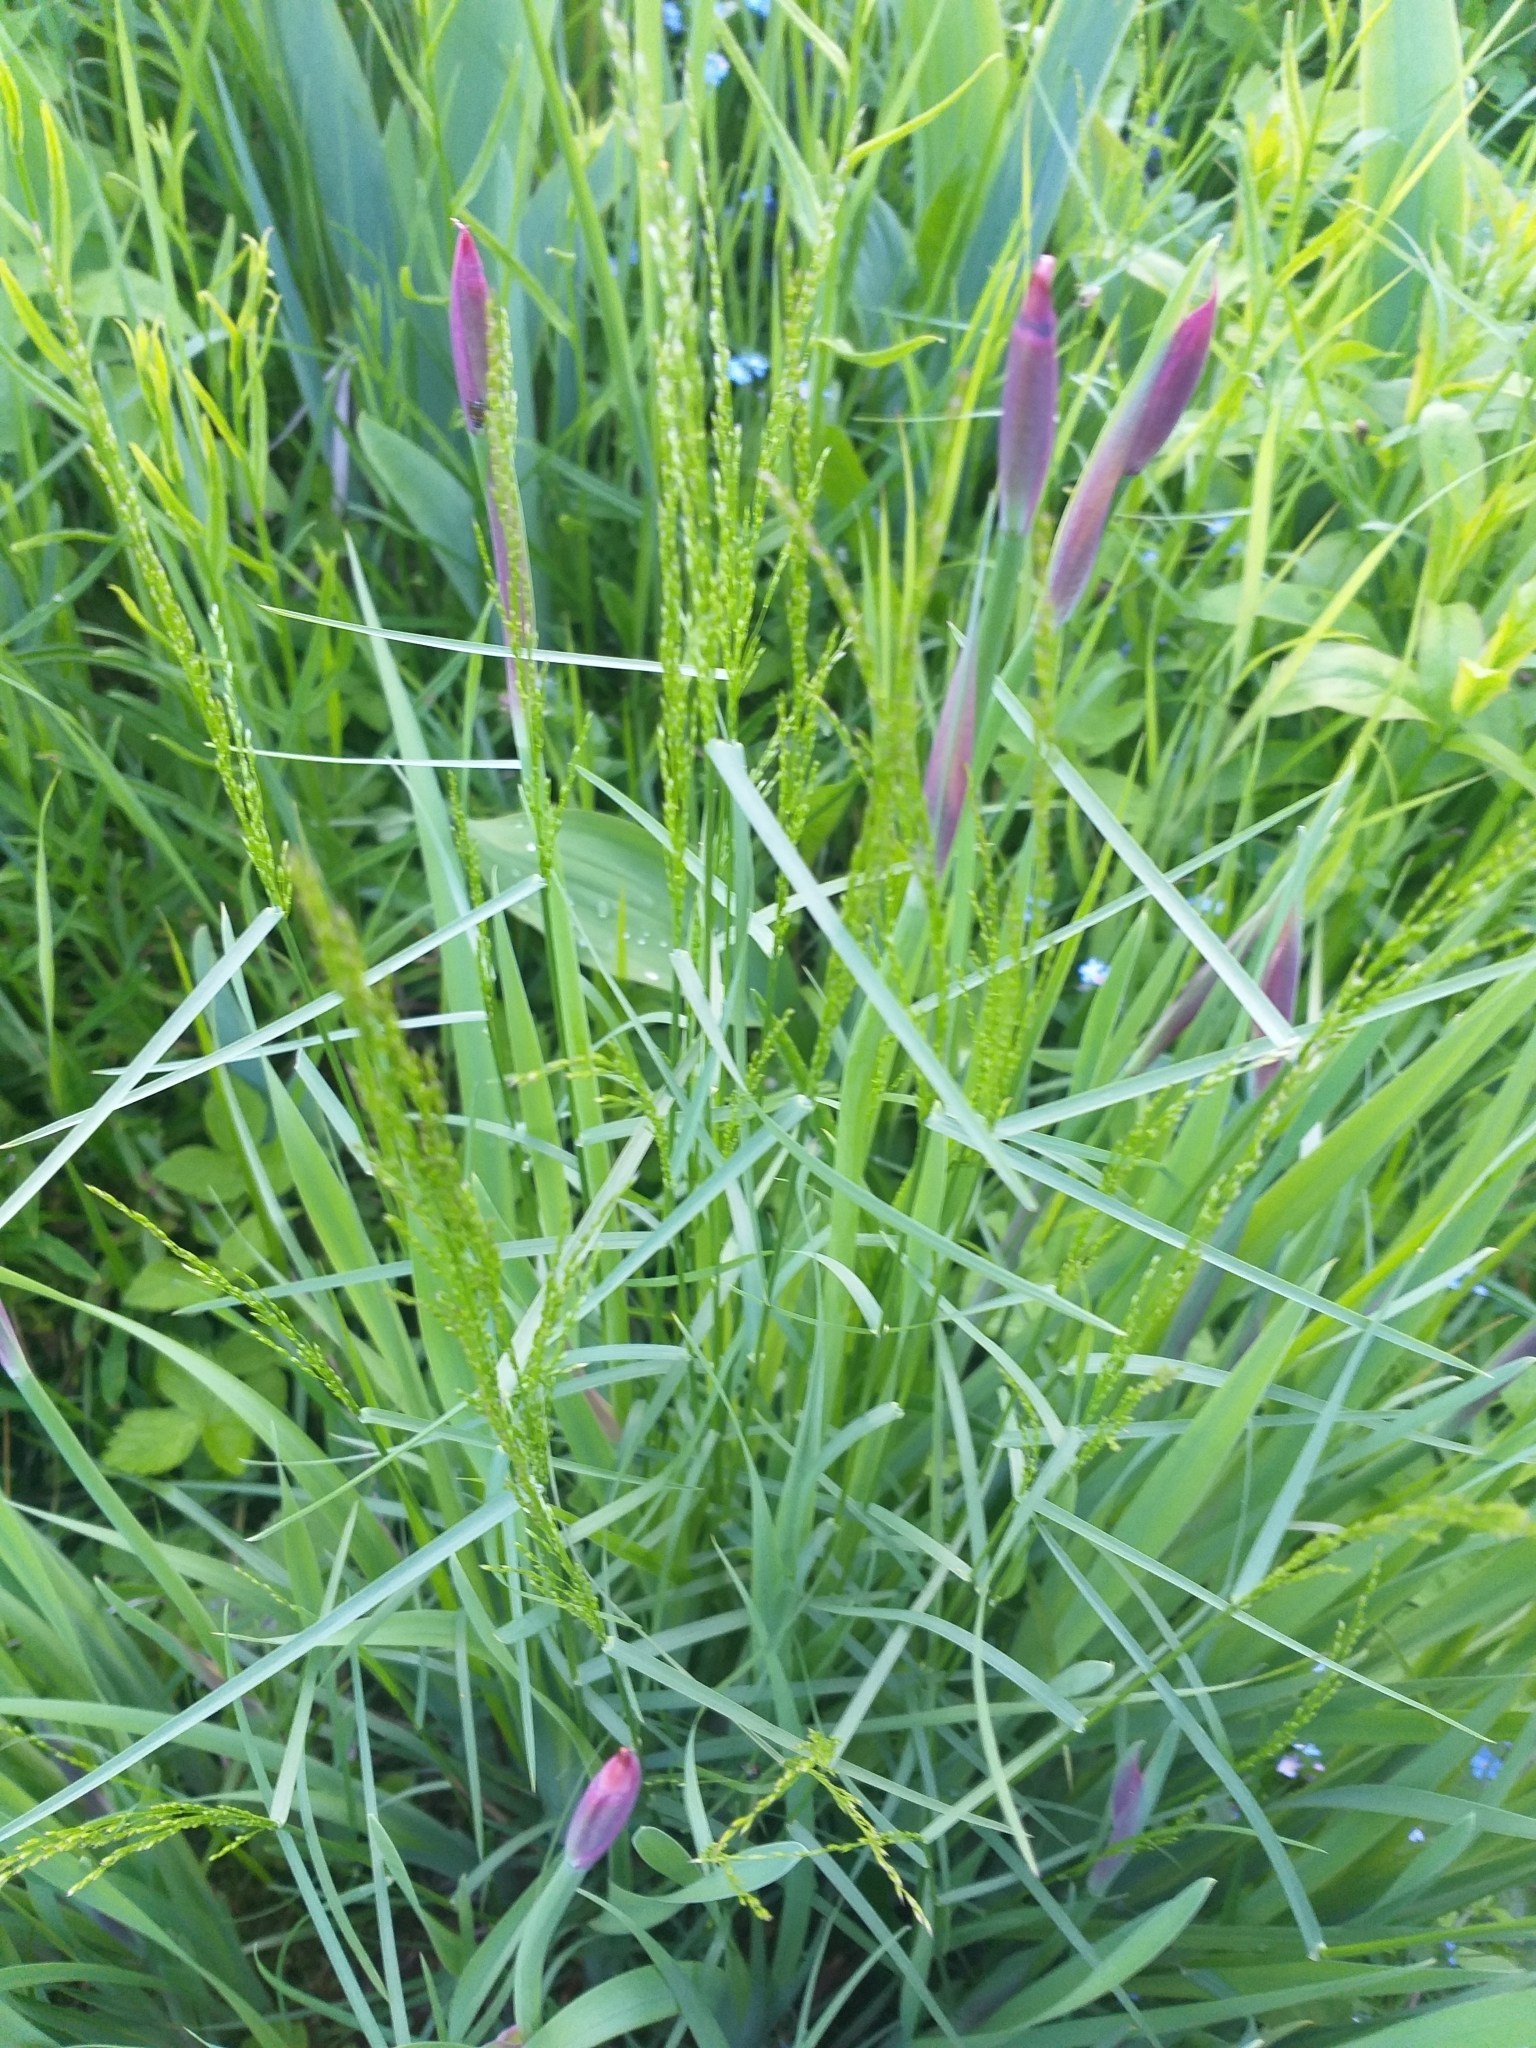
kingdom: Plantae
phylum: Tracheophyta
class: Liliopsida
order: Poales
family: Poaceae
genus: Poa
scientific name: Poa palustris
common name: Swamp meadow-grass
